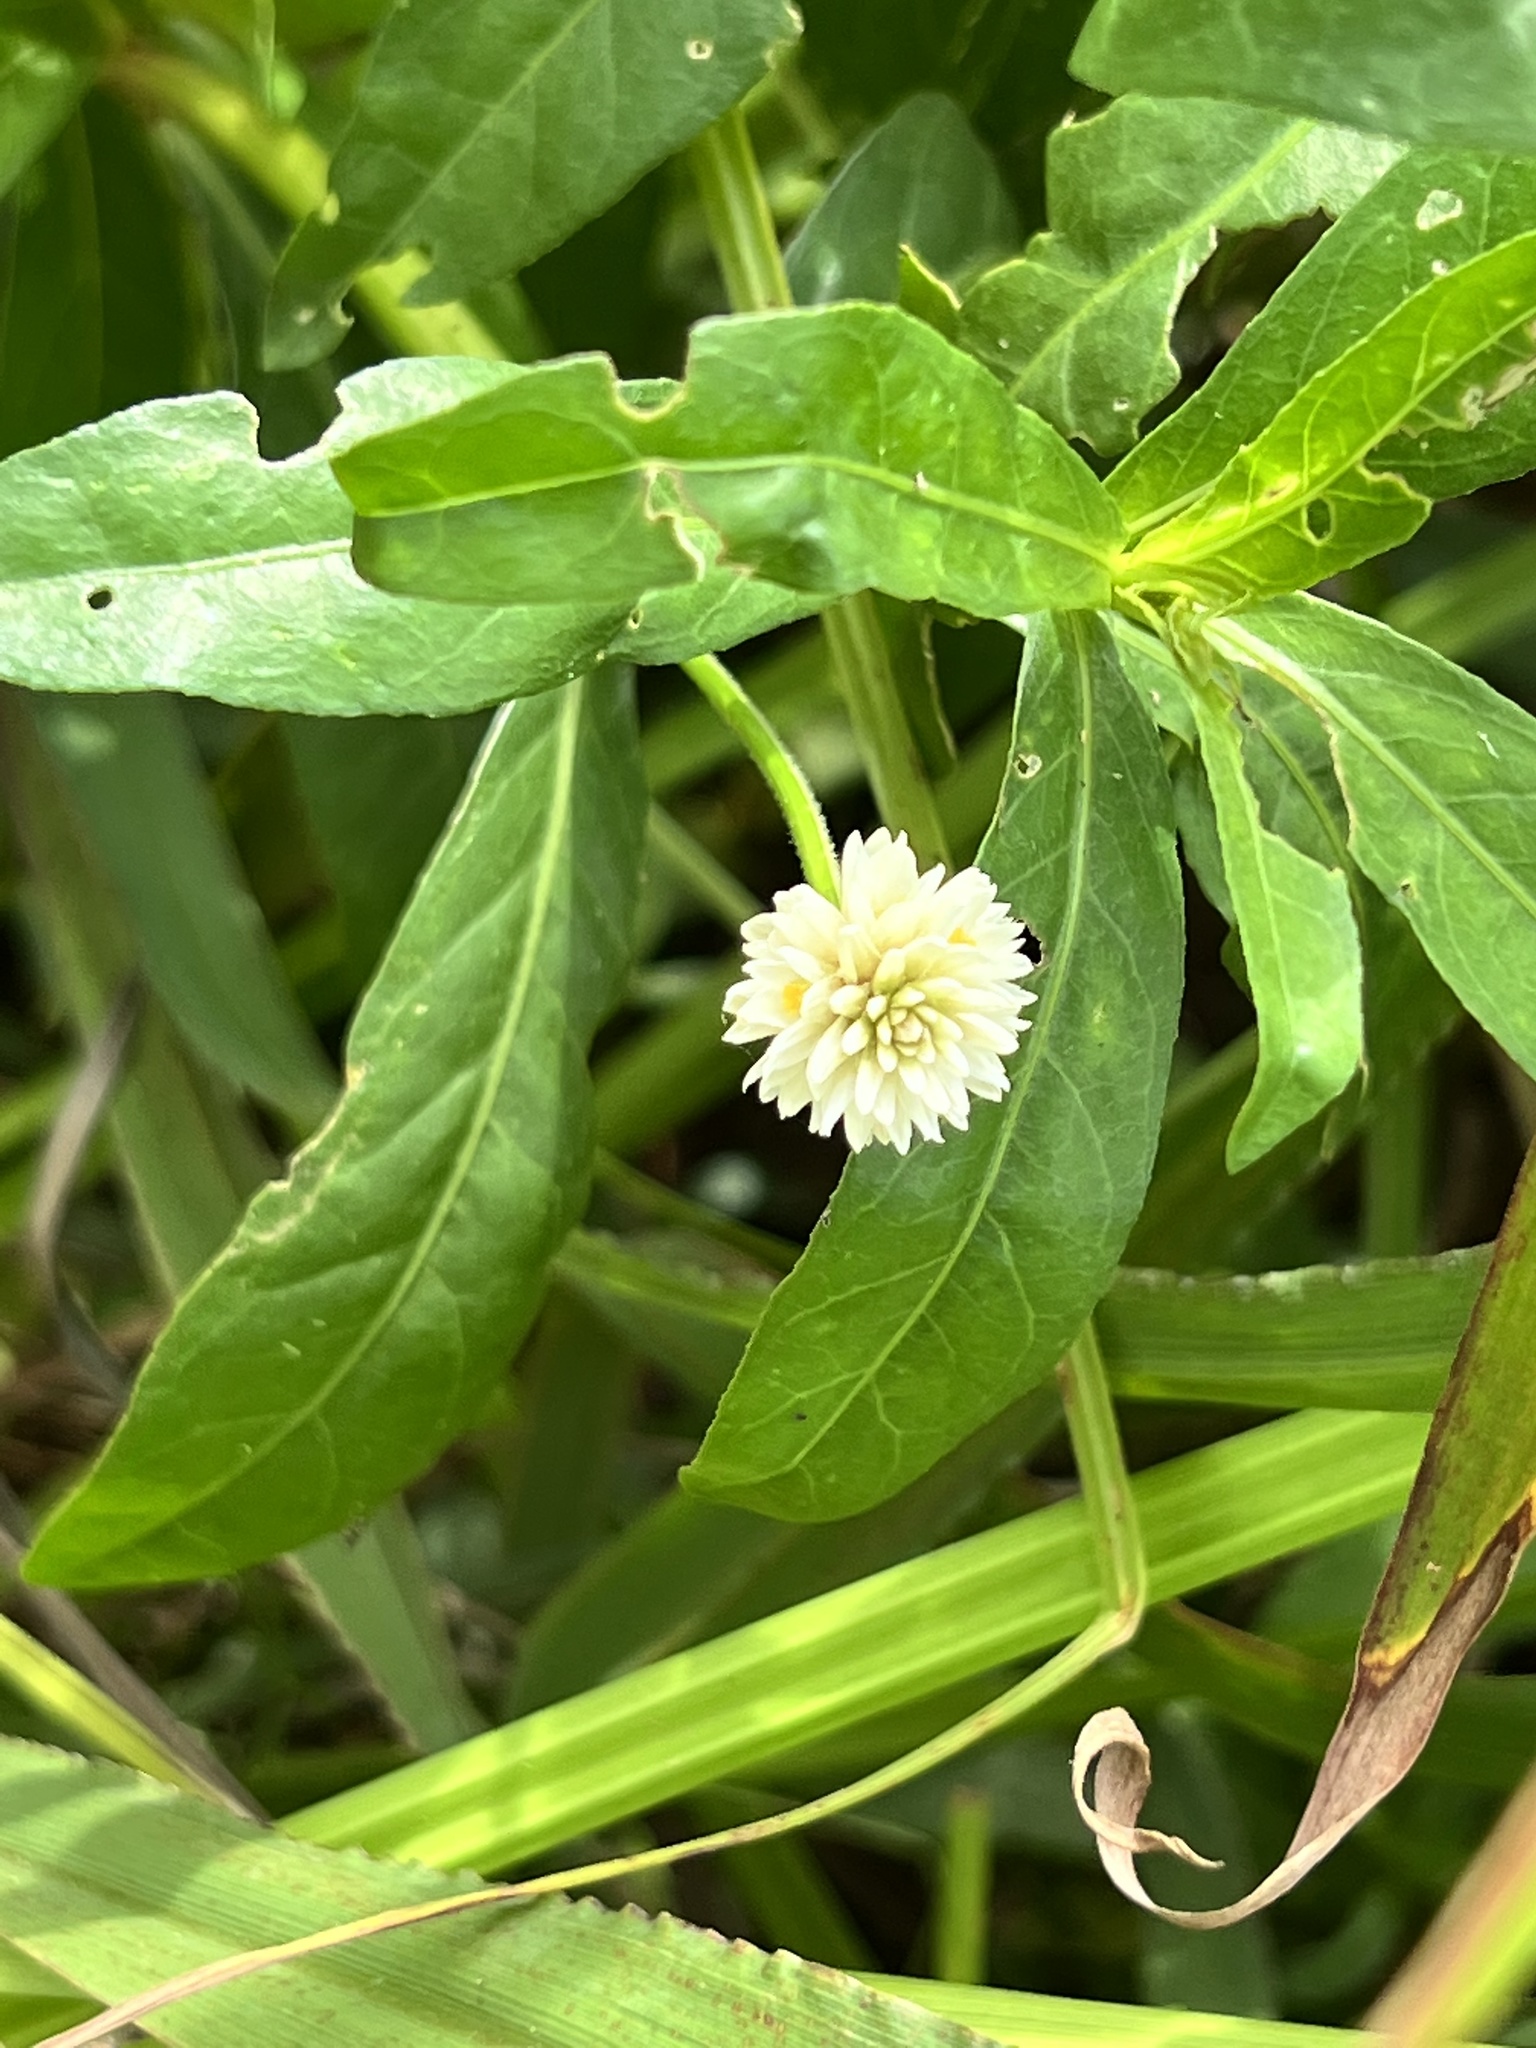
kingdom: Plantae
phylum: Tracheophyta
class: Magnoliopsida
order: Caryophyllales
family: Amaranthaceae
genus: Alternanthera
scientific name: Alternanthera philoxeroides
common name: Alligatorweed
